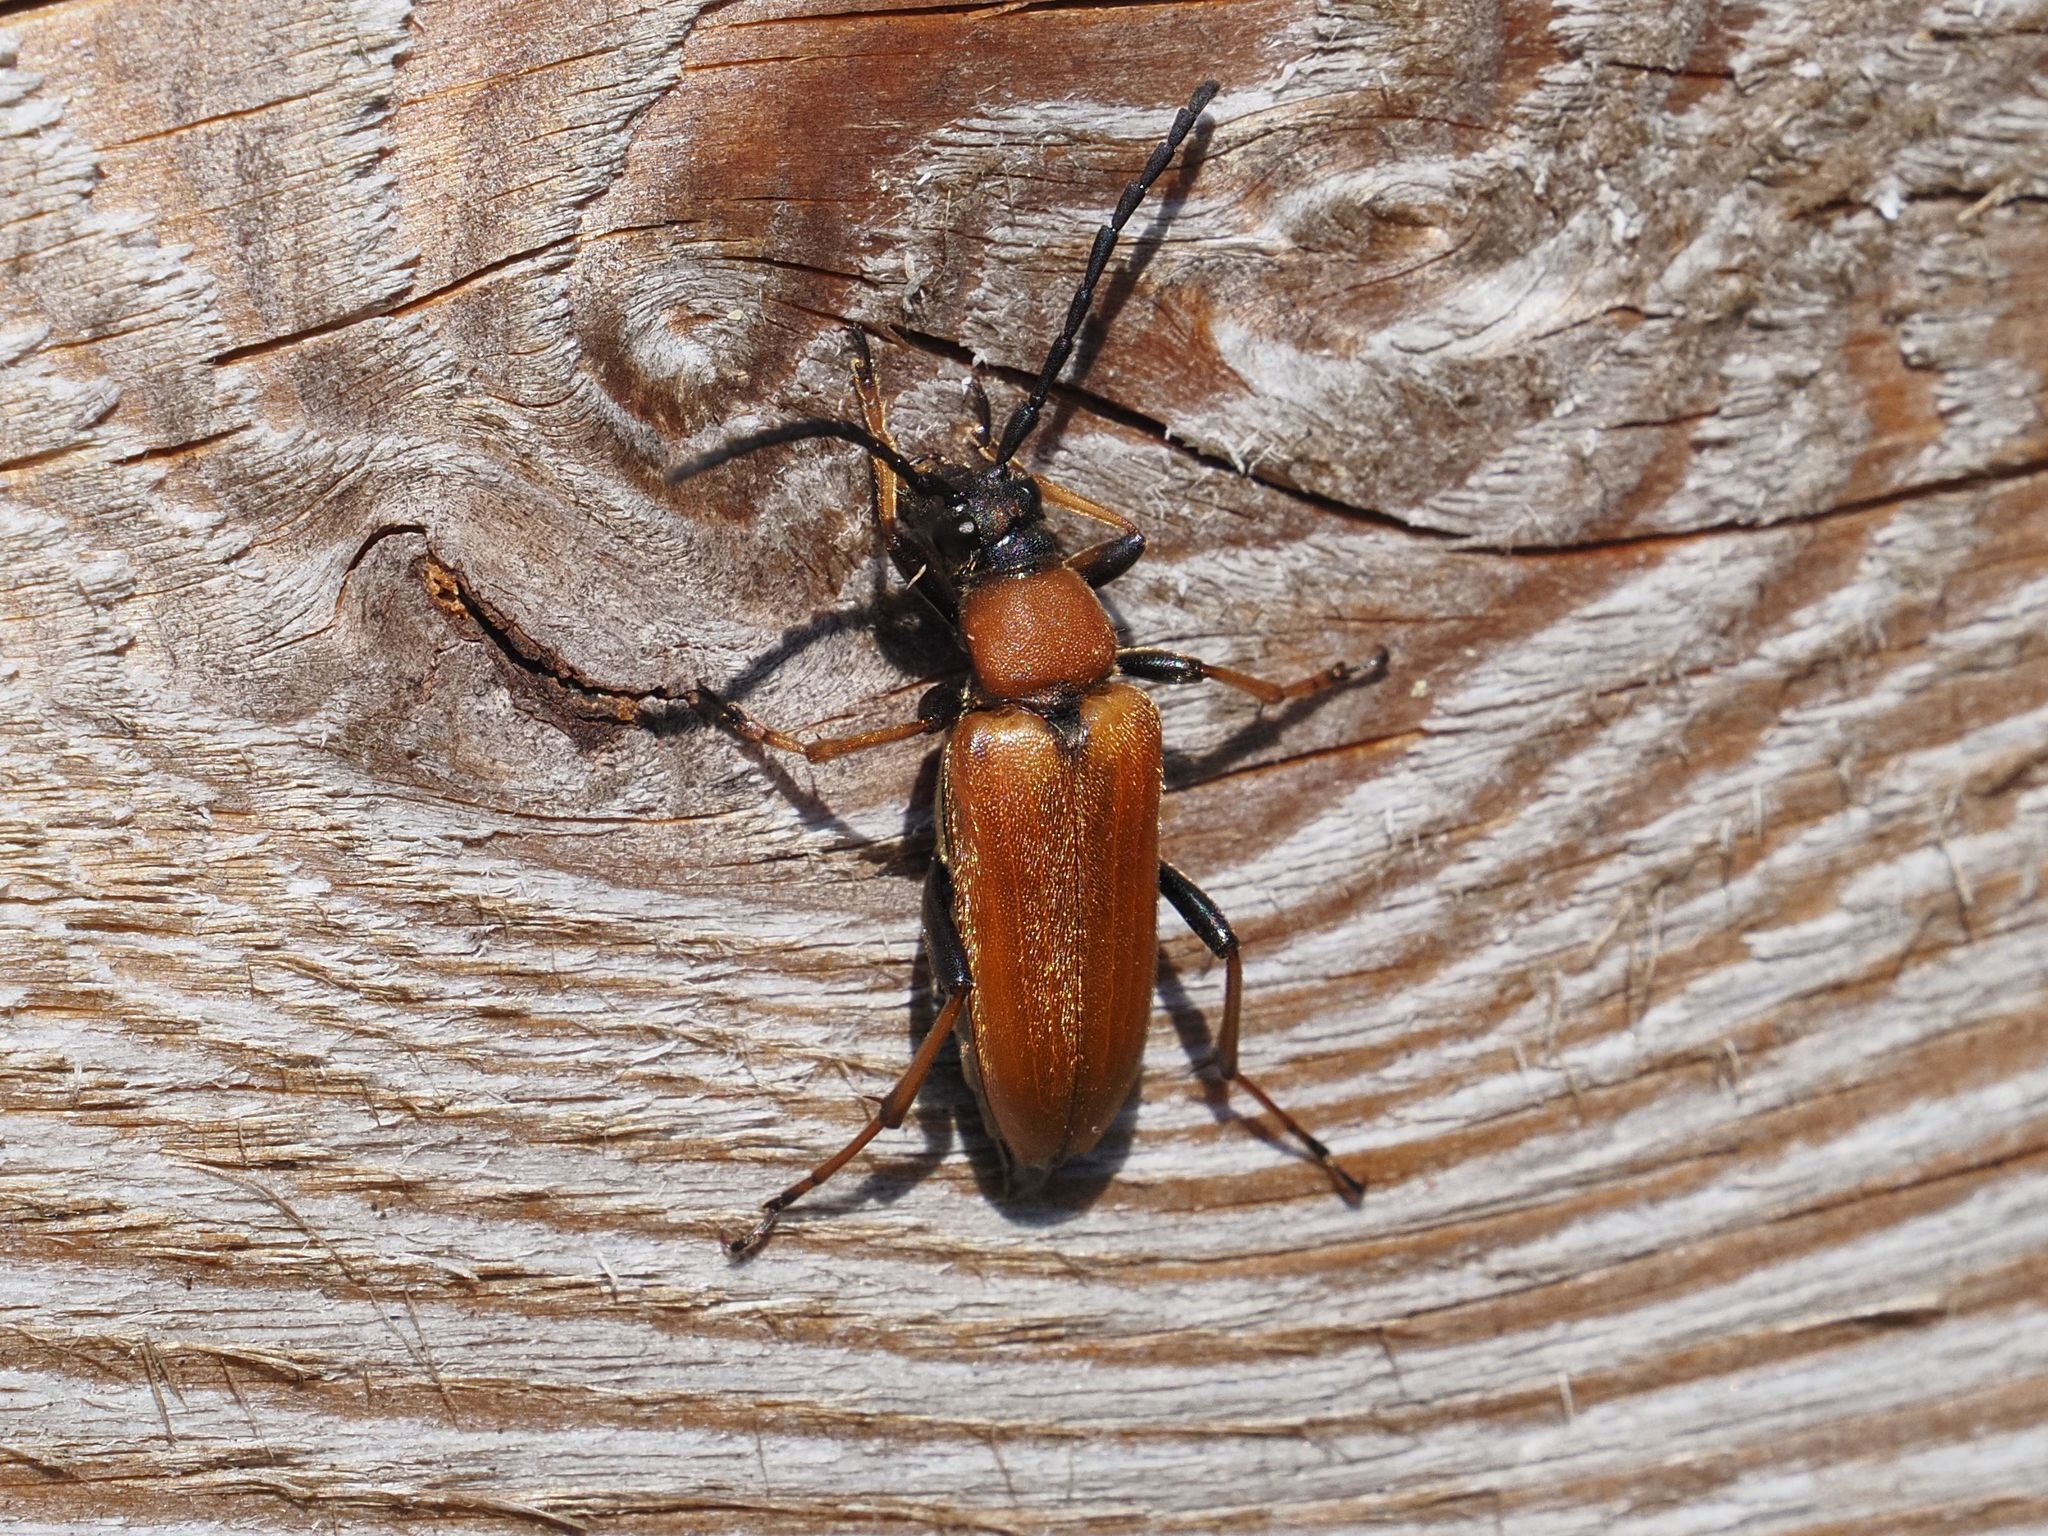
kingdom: Animalia
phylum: Arthropoda
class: Insecta
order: Coleoptera
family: Cerambycidae
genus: Stictoleptura
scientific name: Stictoleptura rubra
